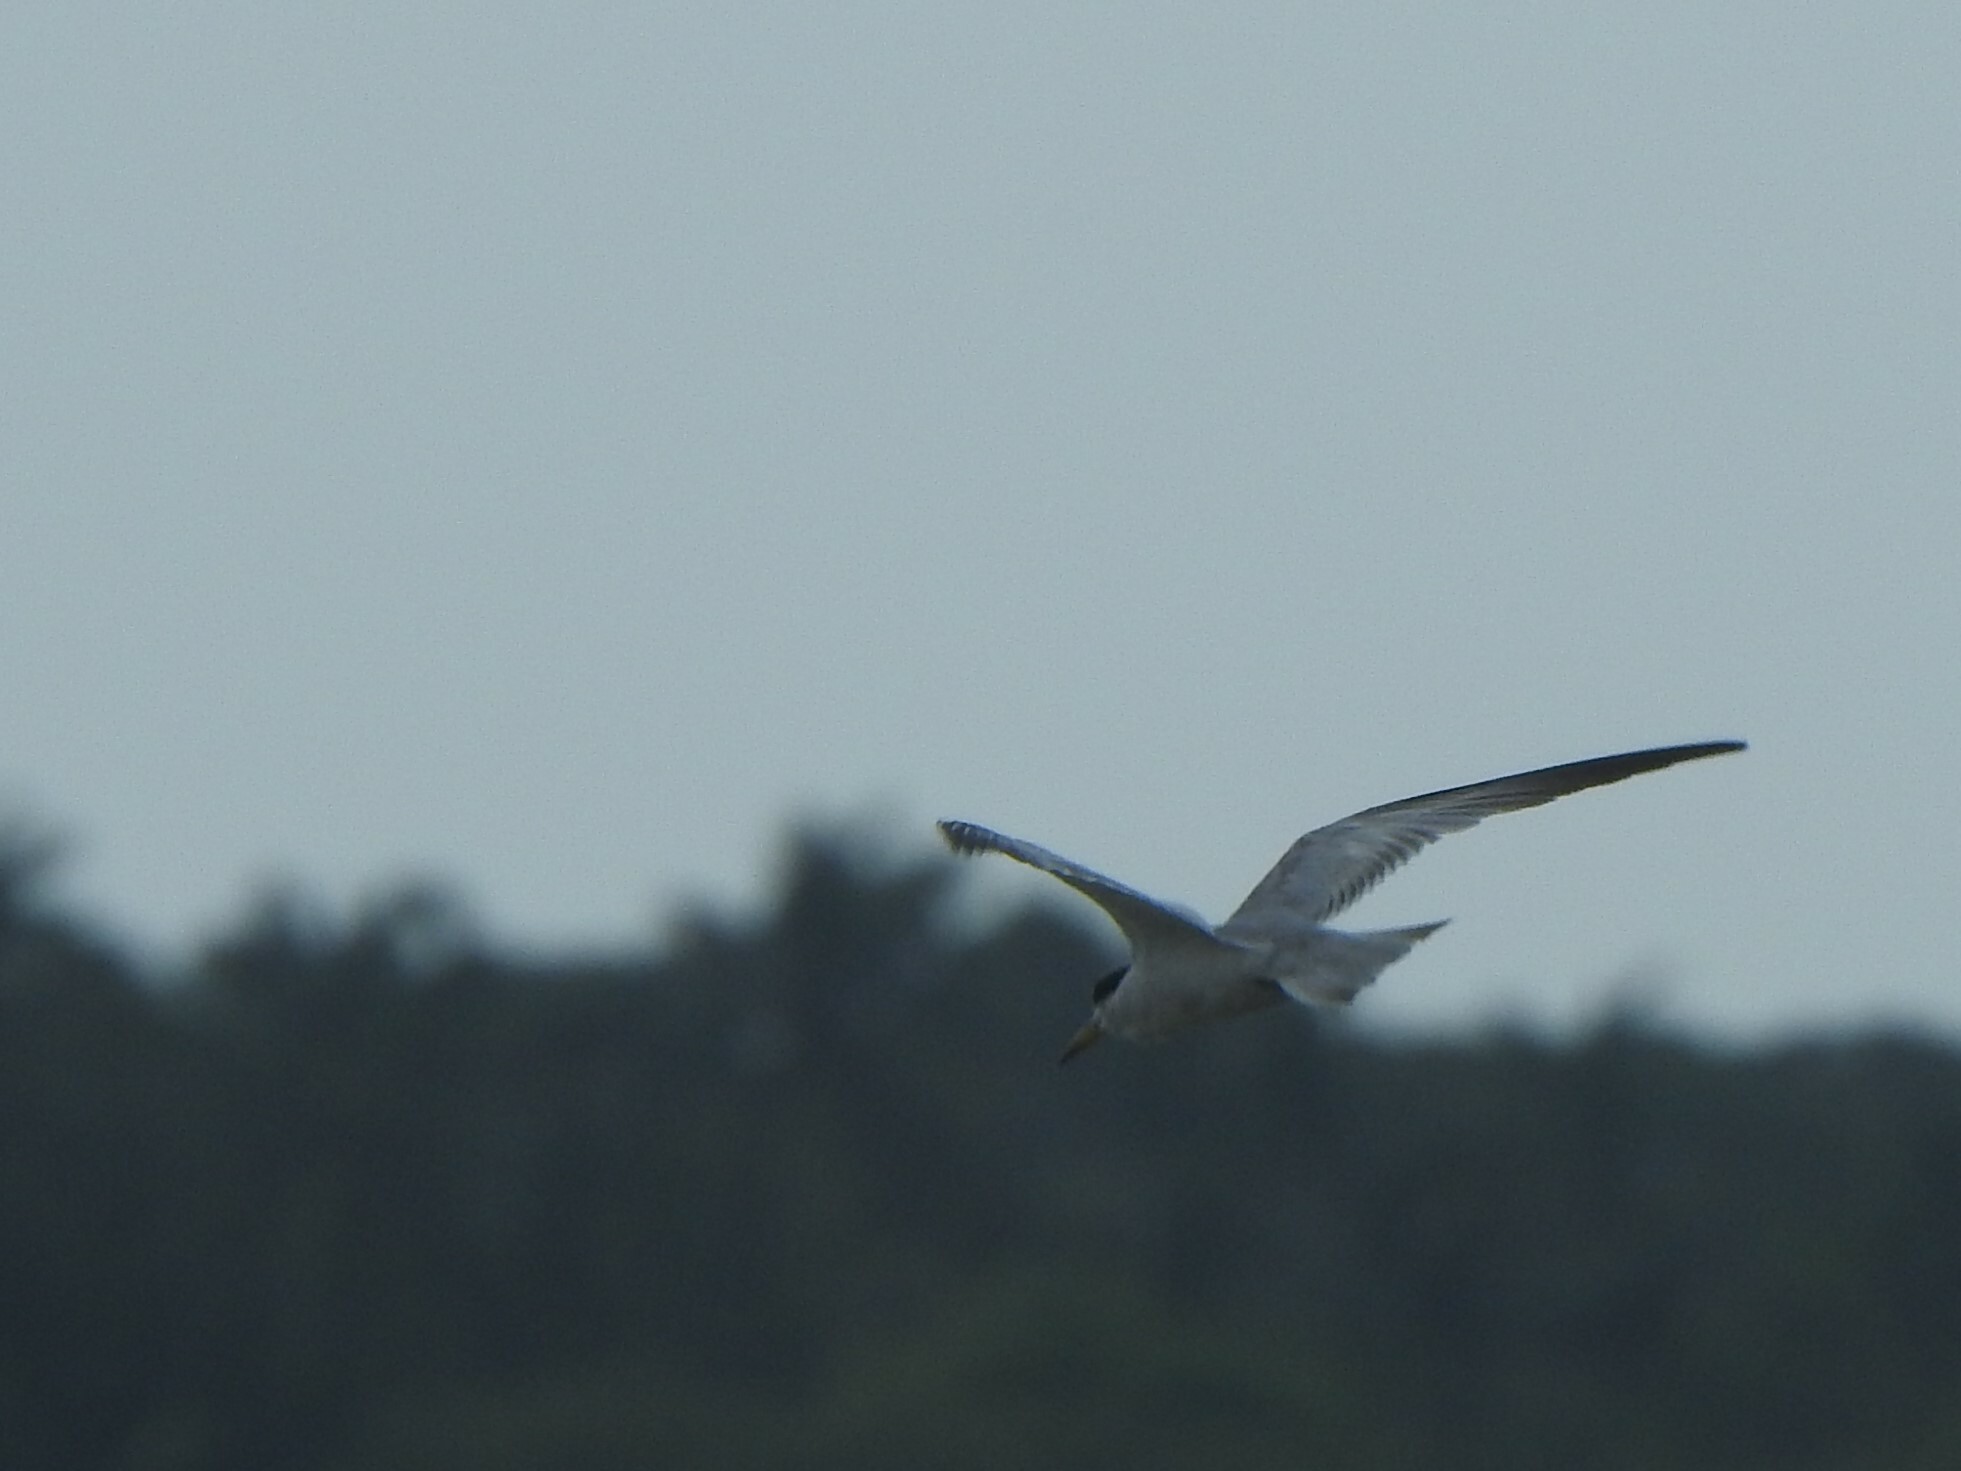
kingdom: Animalia
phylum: Chordata
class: Aves
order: Charadriiformes
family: Laridae
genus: Phaetusa
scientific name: Phaetusa simplex
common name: Large-billed tern
